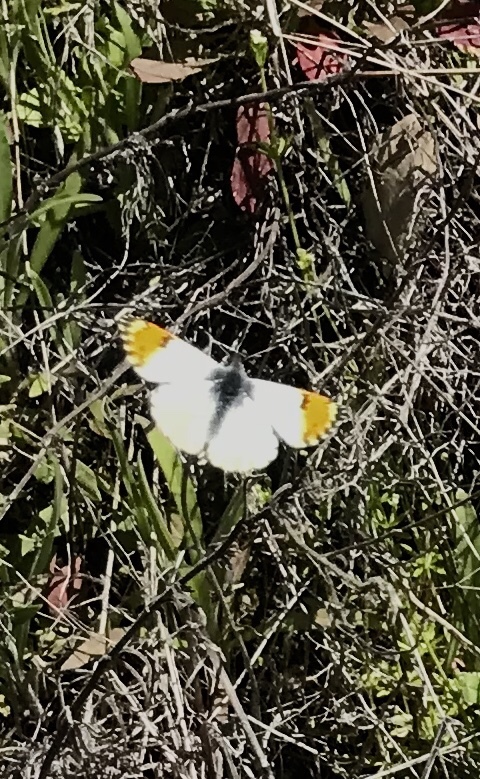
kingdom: Animalia
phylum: Arthropoda
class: Insecta
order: Lepidoptera
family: Pieridae
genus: Anthocharis
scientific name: Anthocharis sara
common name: Sara's orangetip
